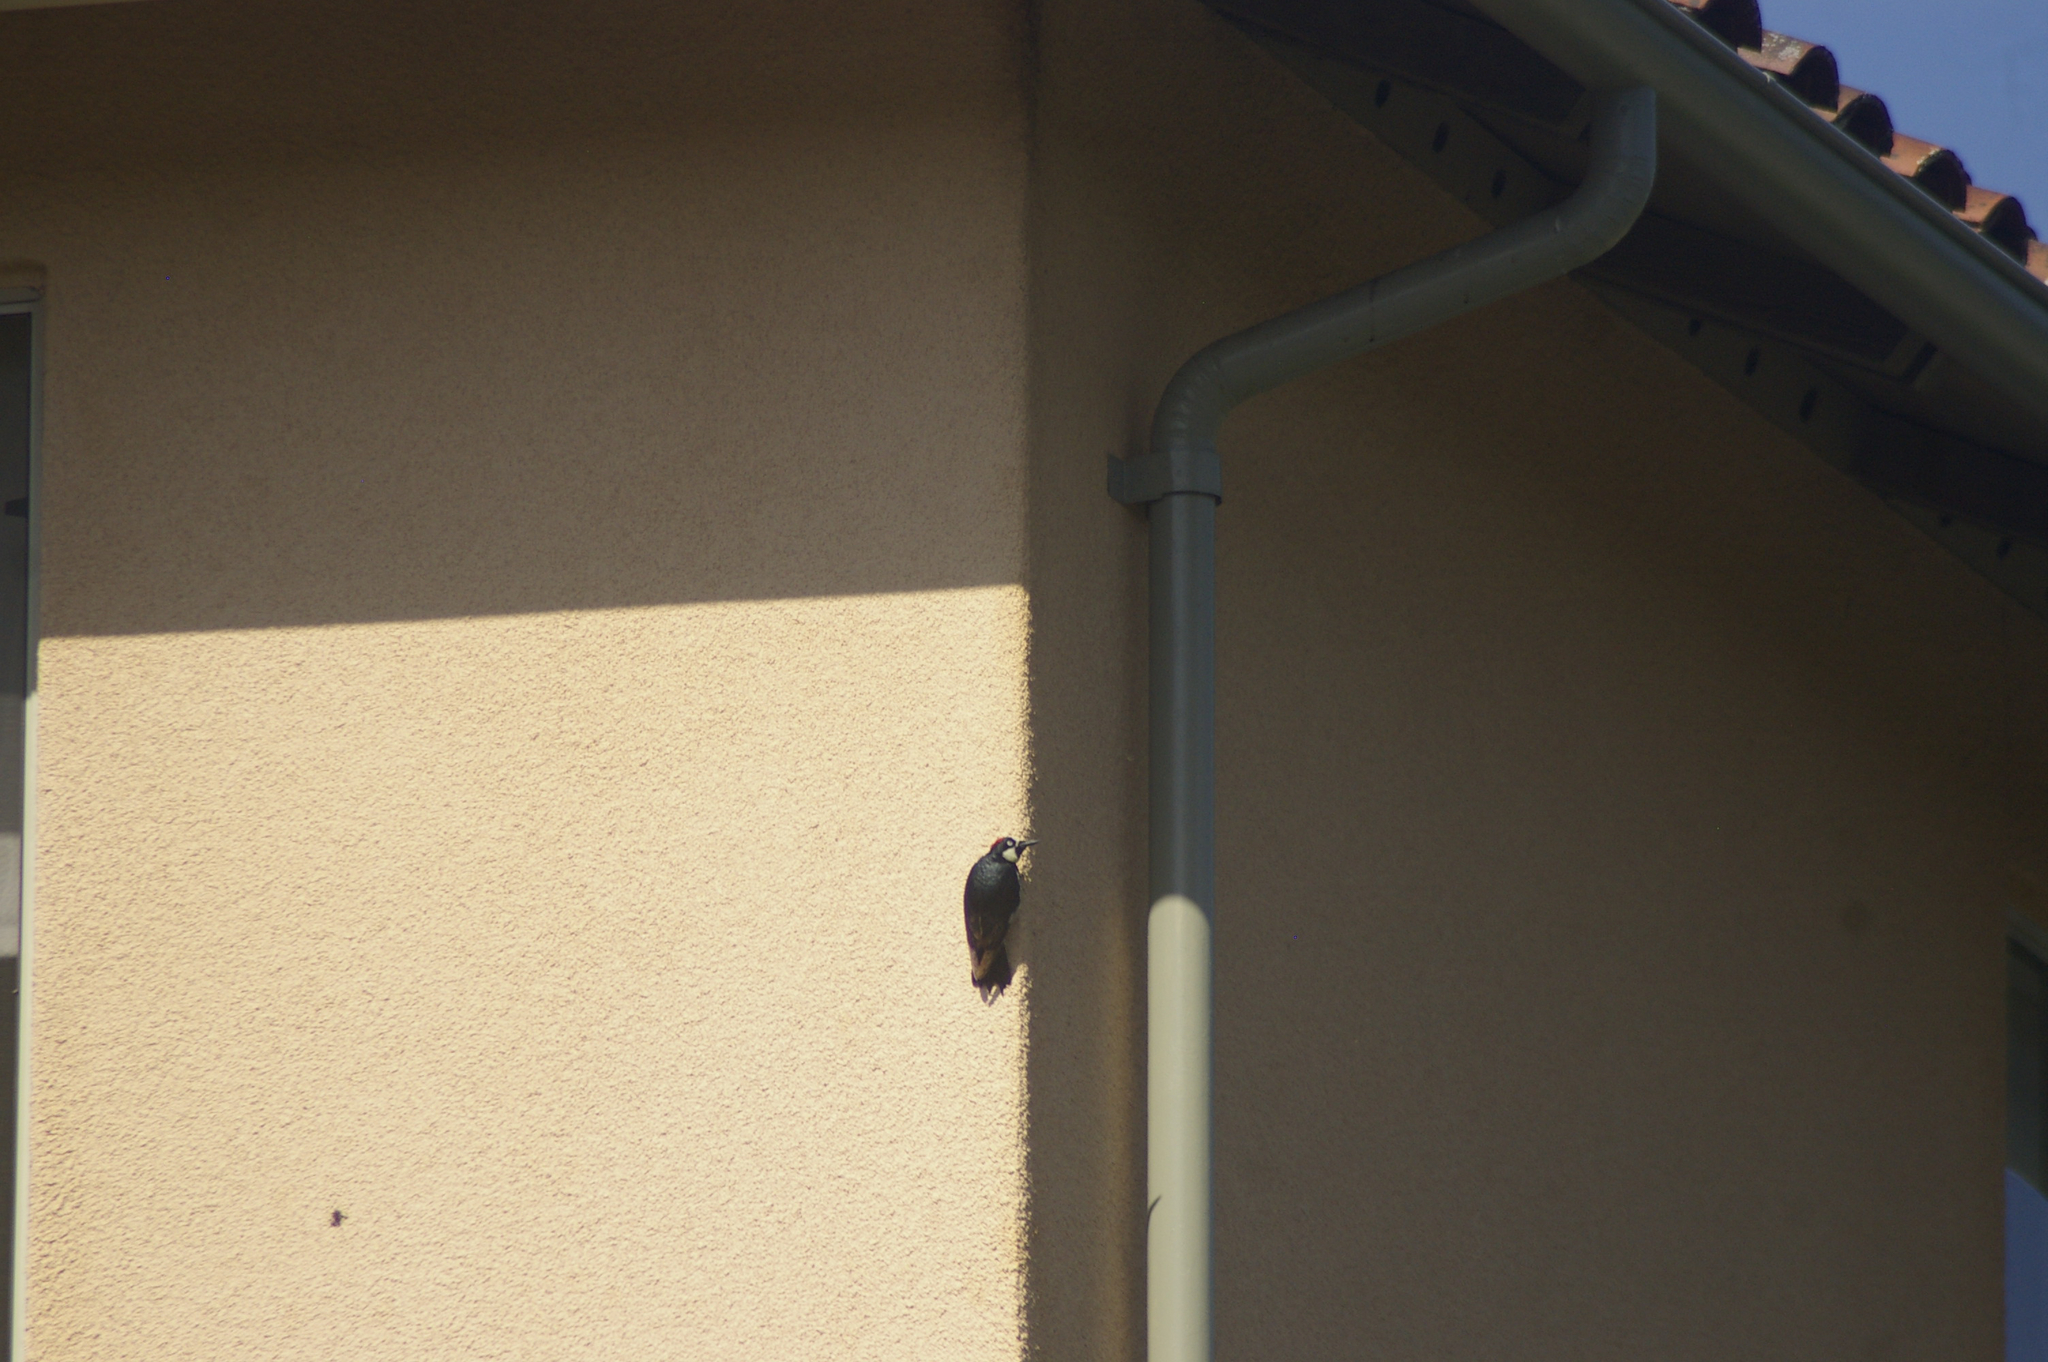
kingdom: Animalia
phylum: Chordata
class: Aves
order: Piciformes
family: Picidae
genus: Melanerpes
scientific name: Melanerpes formicivorus
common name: Acorn woodpecker
